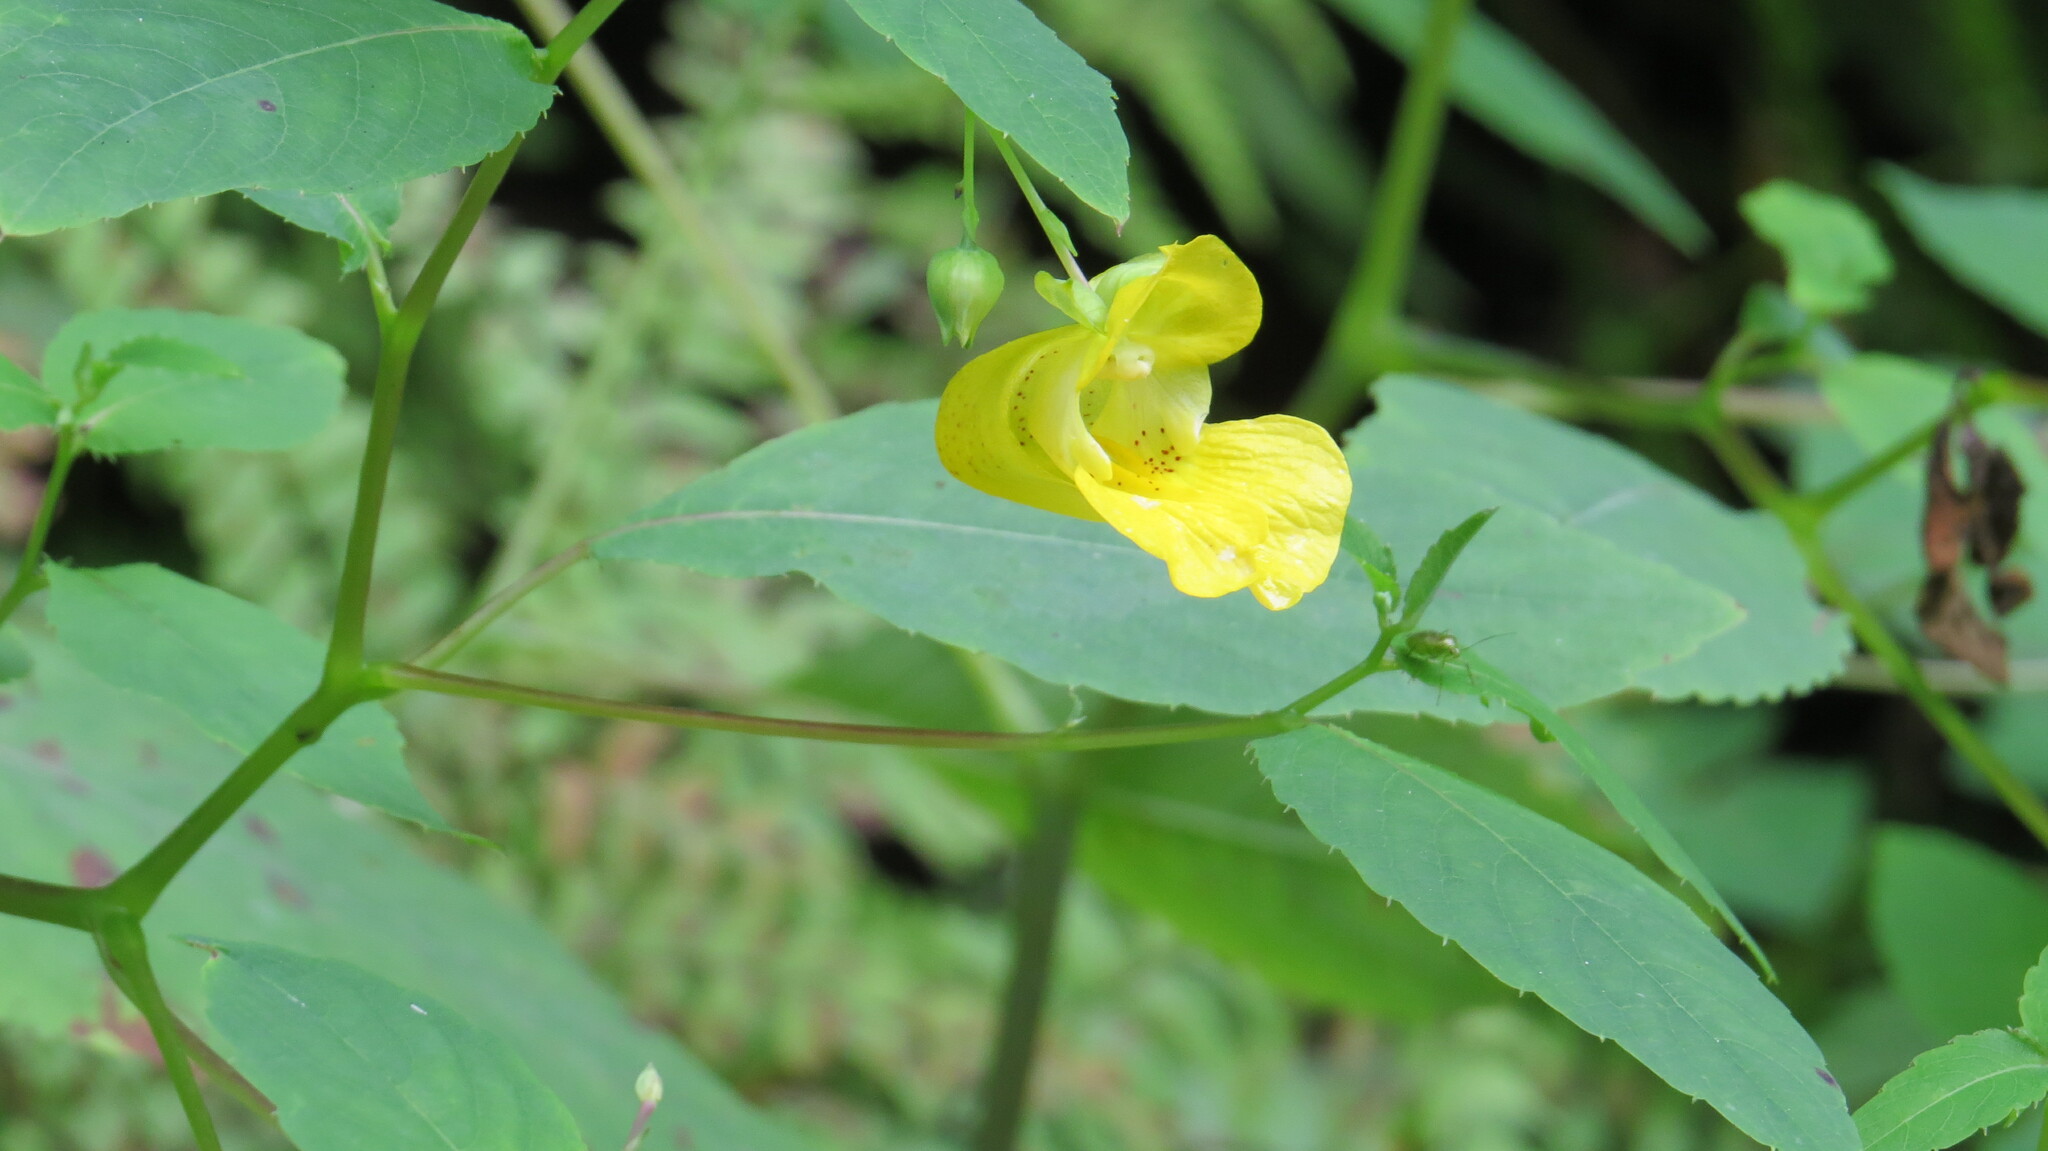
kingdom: Plantae
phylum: Tracheophyta
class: Magnoliopsida
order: Ericales
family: Balsaminaceae
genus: Impatiens
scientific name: Impatiens pallida
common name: Pale snapweed
